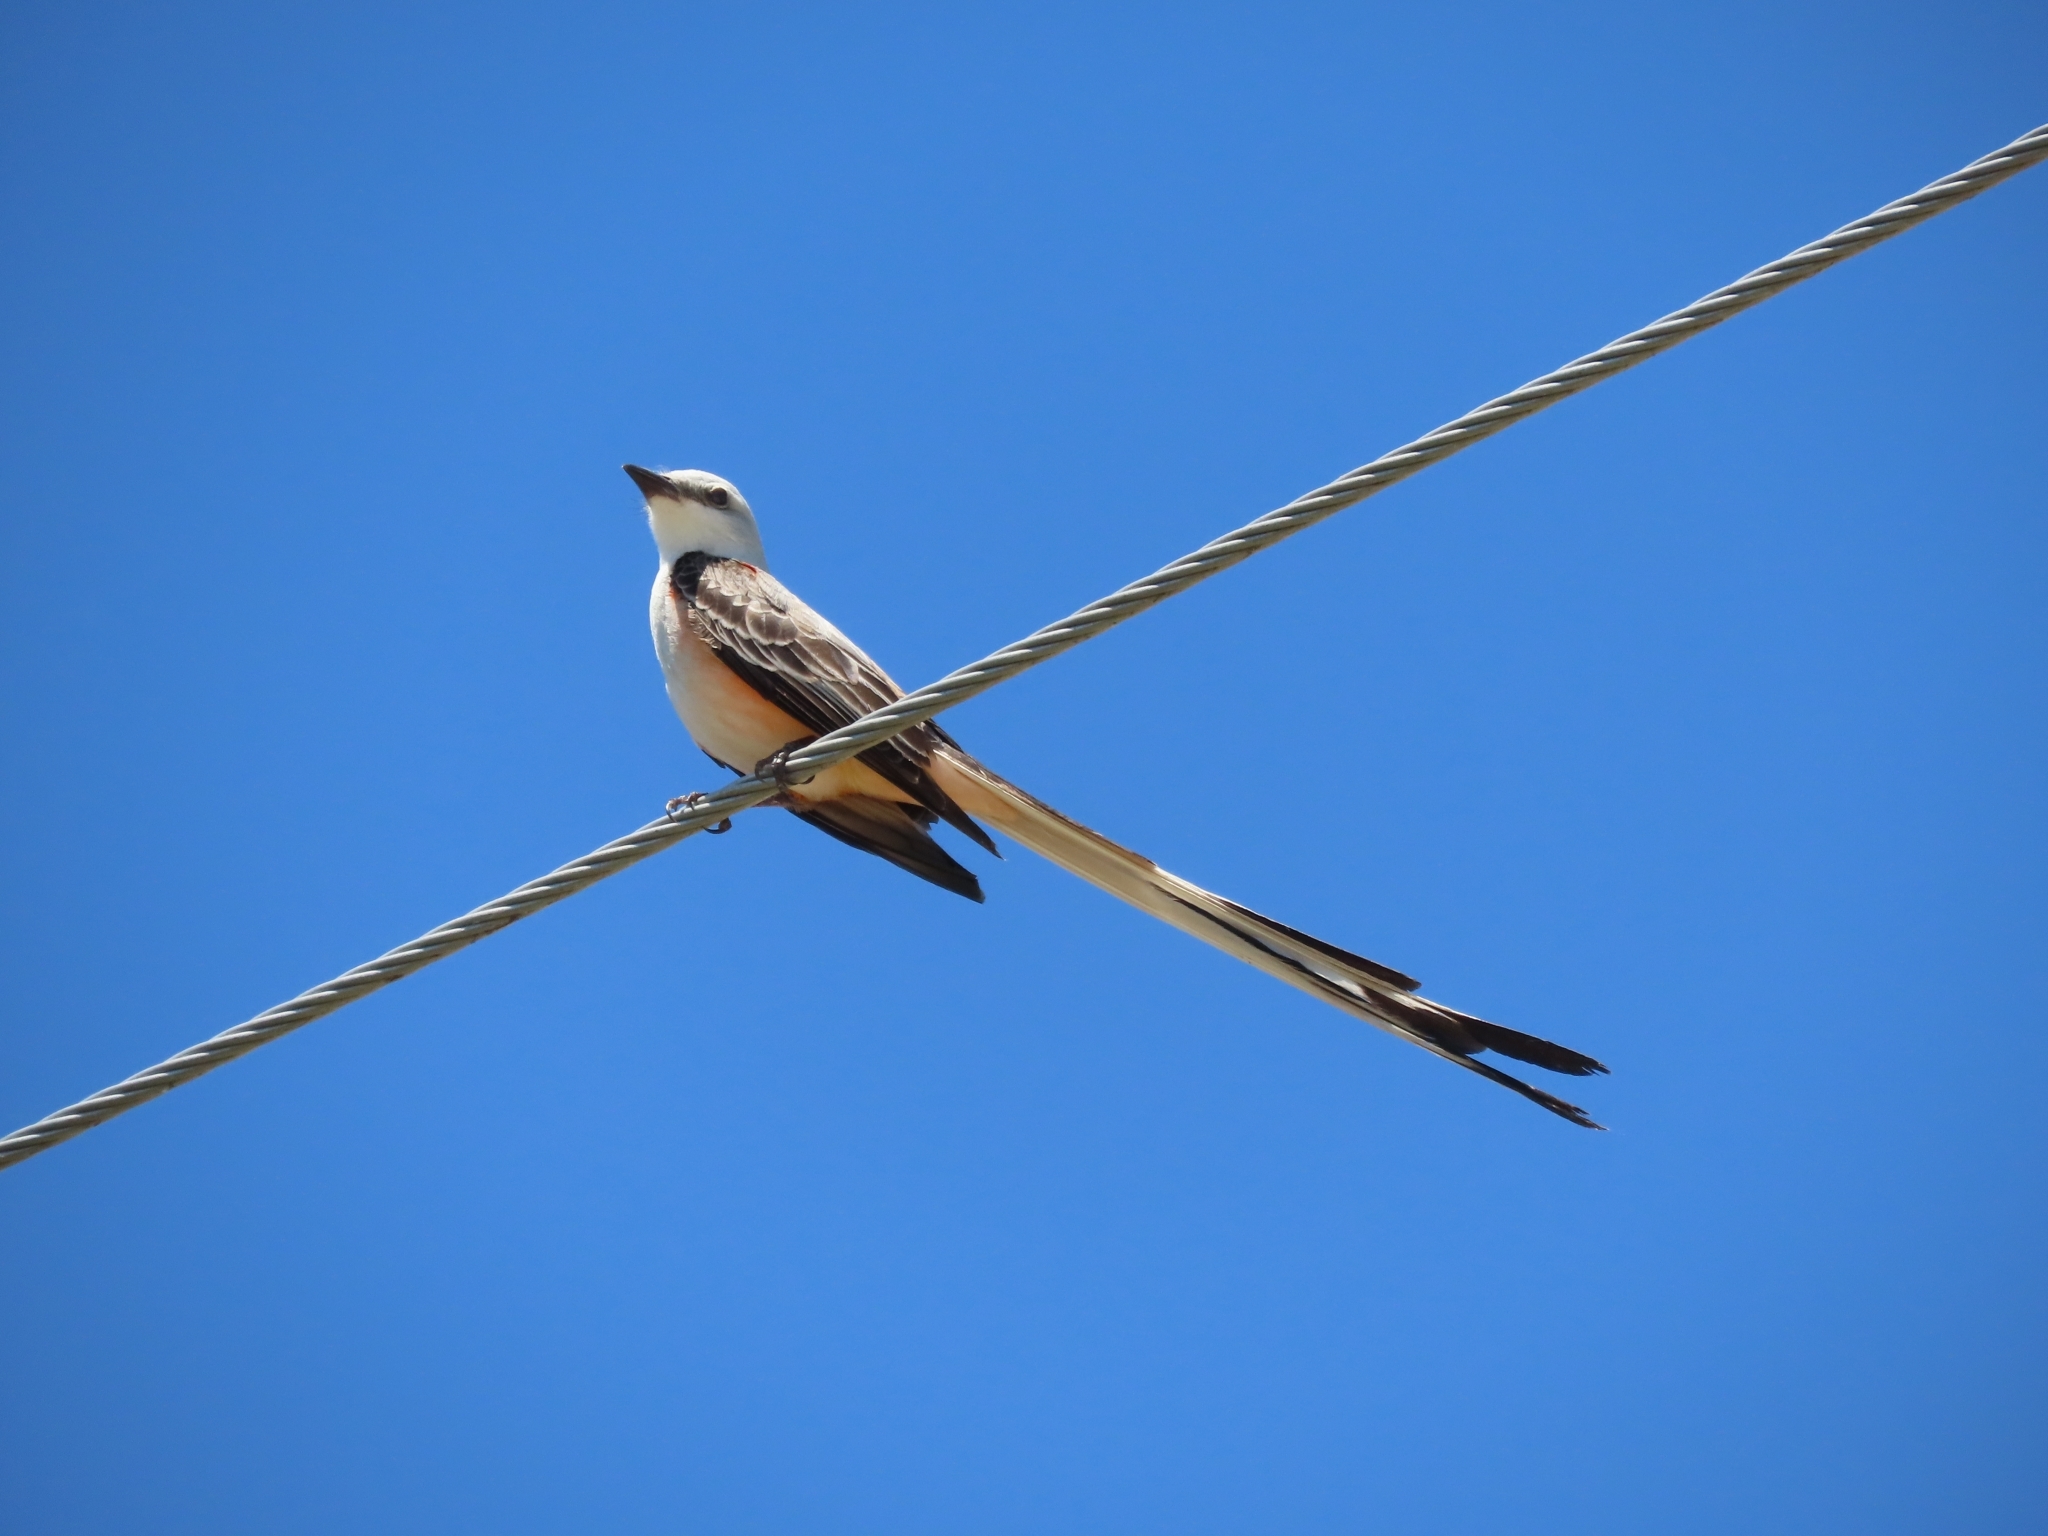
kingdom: Animalia
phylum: Chordata
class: Aves
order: Passeriformes
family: Tyrannidae
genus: Tyrannus
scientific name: Tyrannus forficatus
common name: Scissor-tailed flycatcher
